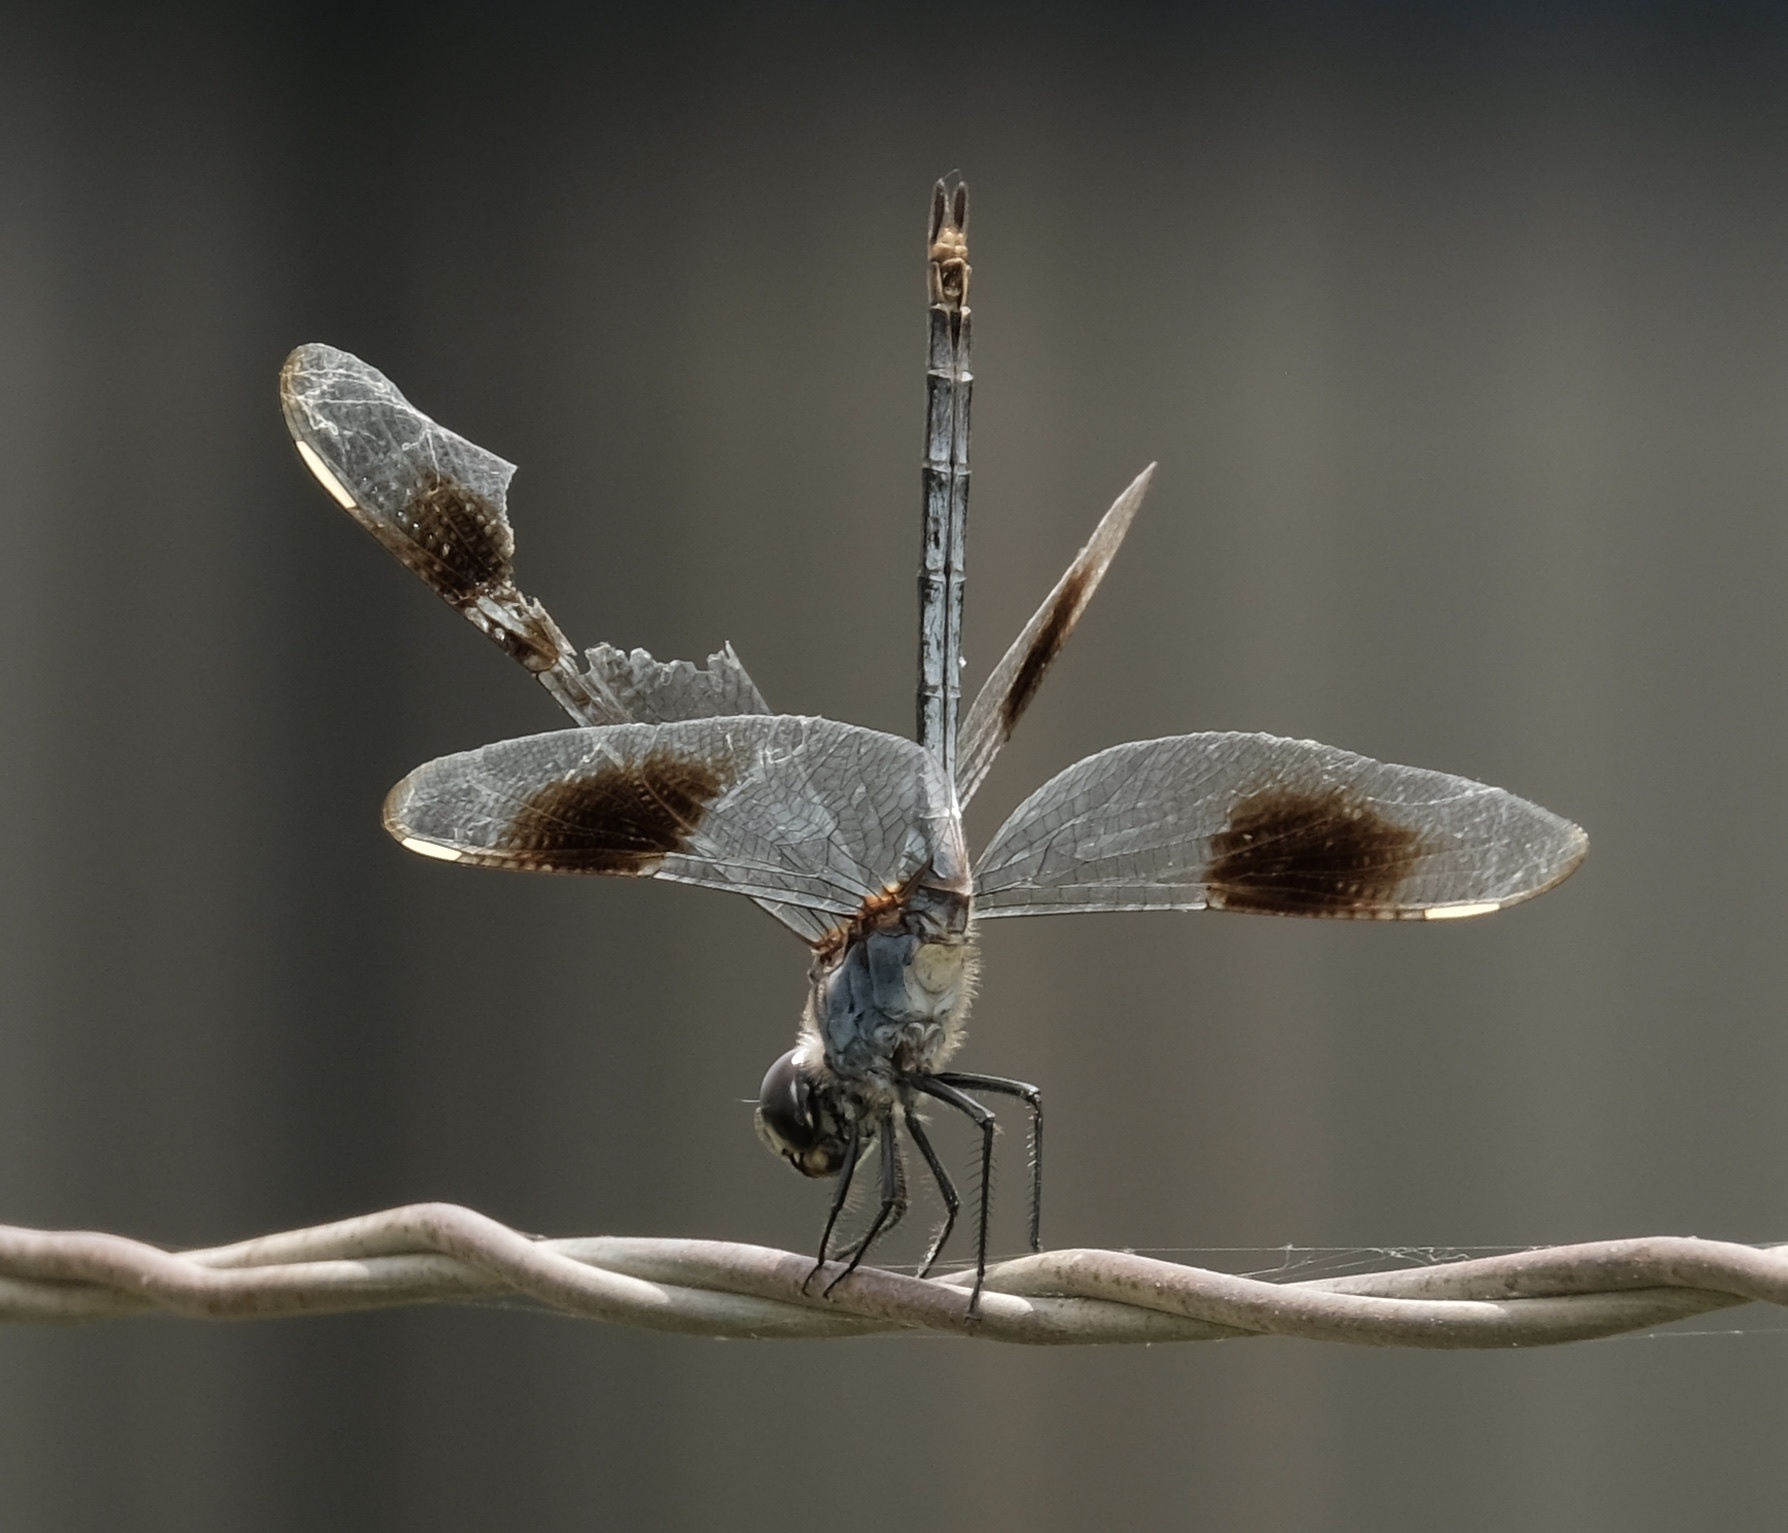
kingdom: Animalia
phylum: Arthropoda
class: Insecta
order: Odonata
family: Libellulidae
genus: Brachymesia
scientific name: Brachymesia gravida
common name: Four-spotted pennant
